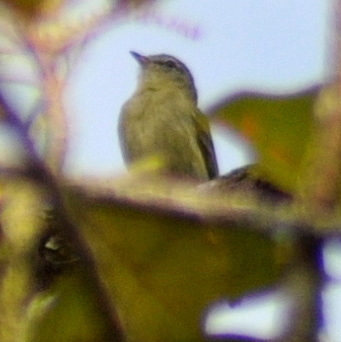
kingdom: Animalia
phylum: Chordata
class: Aves
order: Passeriformes
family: Tyrannidae
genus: Phyllomyias
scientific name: Phyllomyias burmeisteri
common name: Rough-legged tyrannulet
